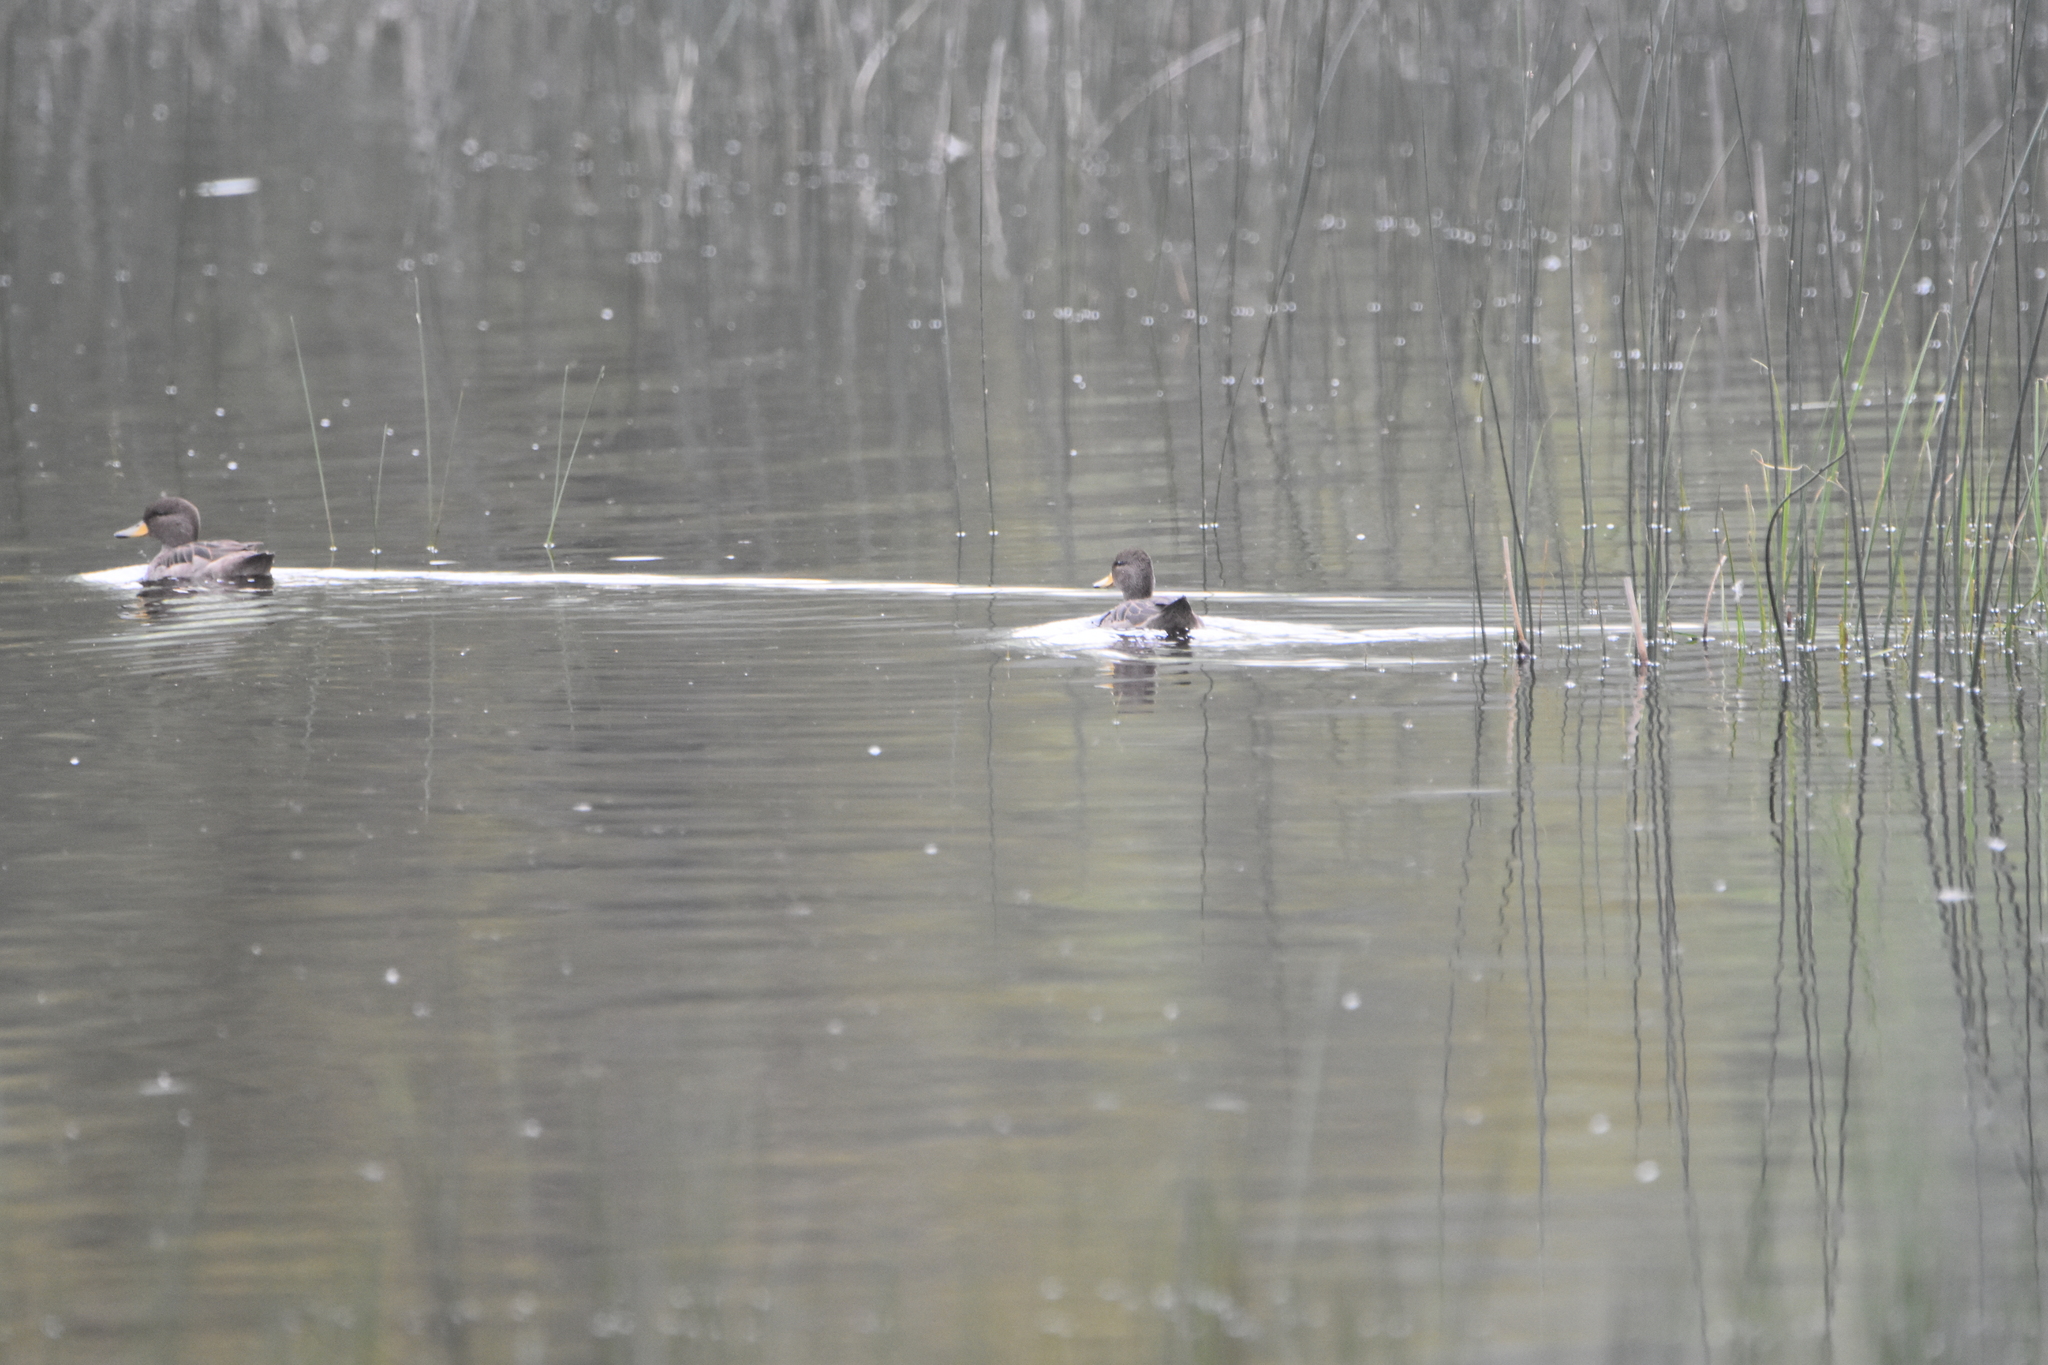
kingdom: Animalia
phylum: Chordata
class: Aves
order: Anseriformes
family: Anatidae
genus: Anas
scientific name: Anas flavirostris
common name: Yellow-billed teal
